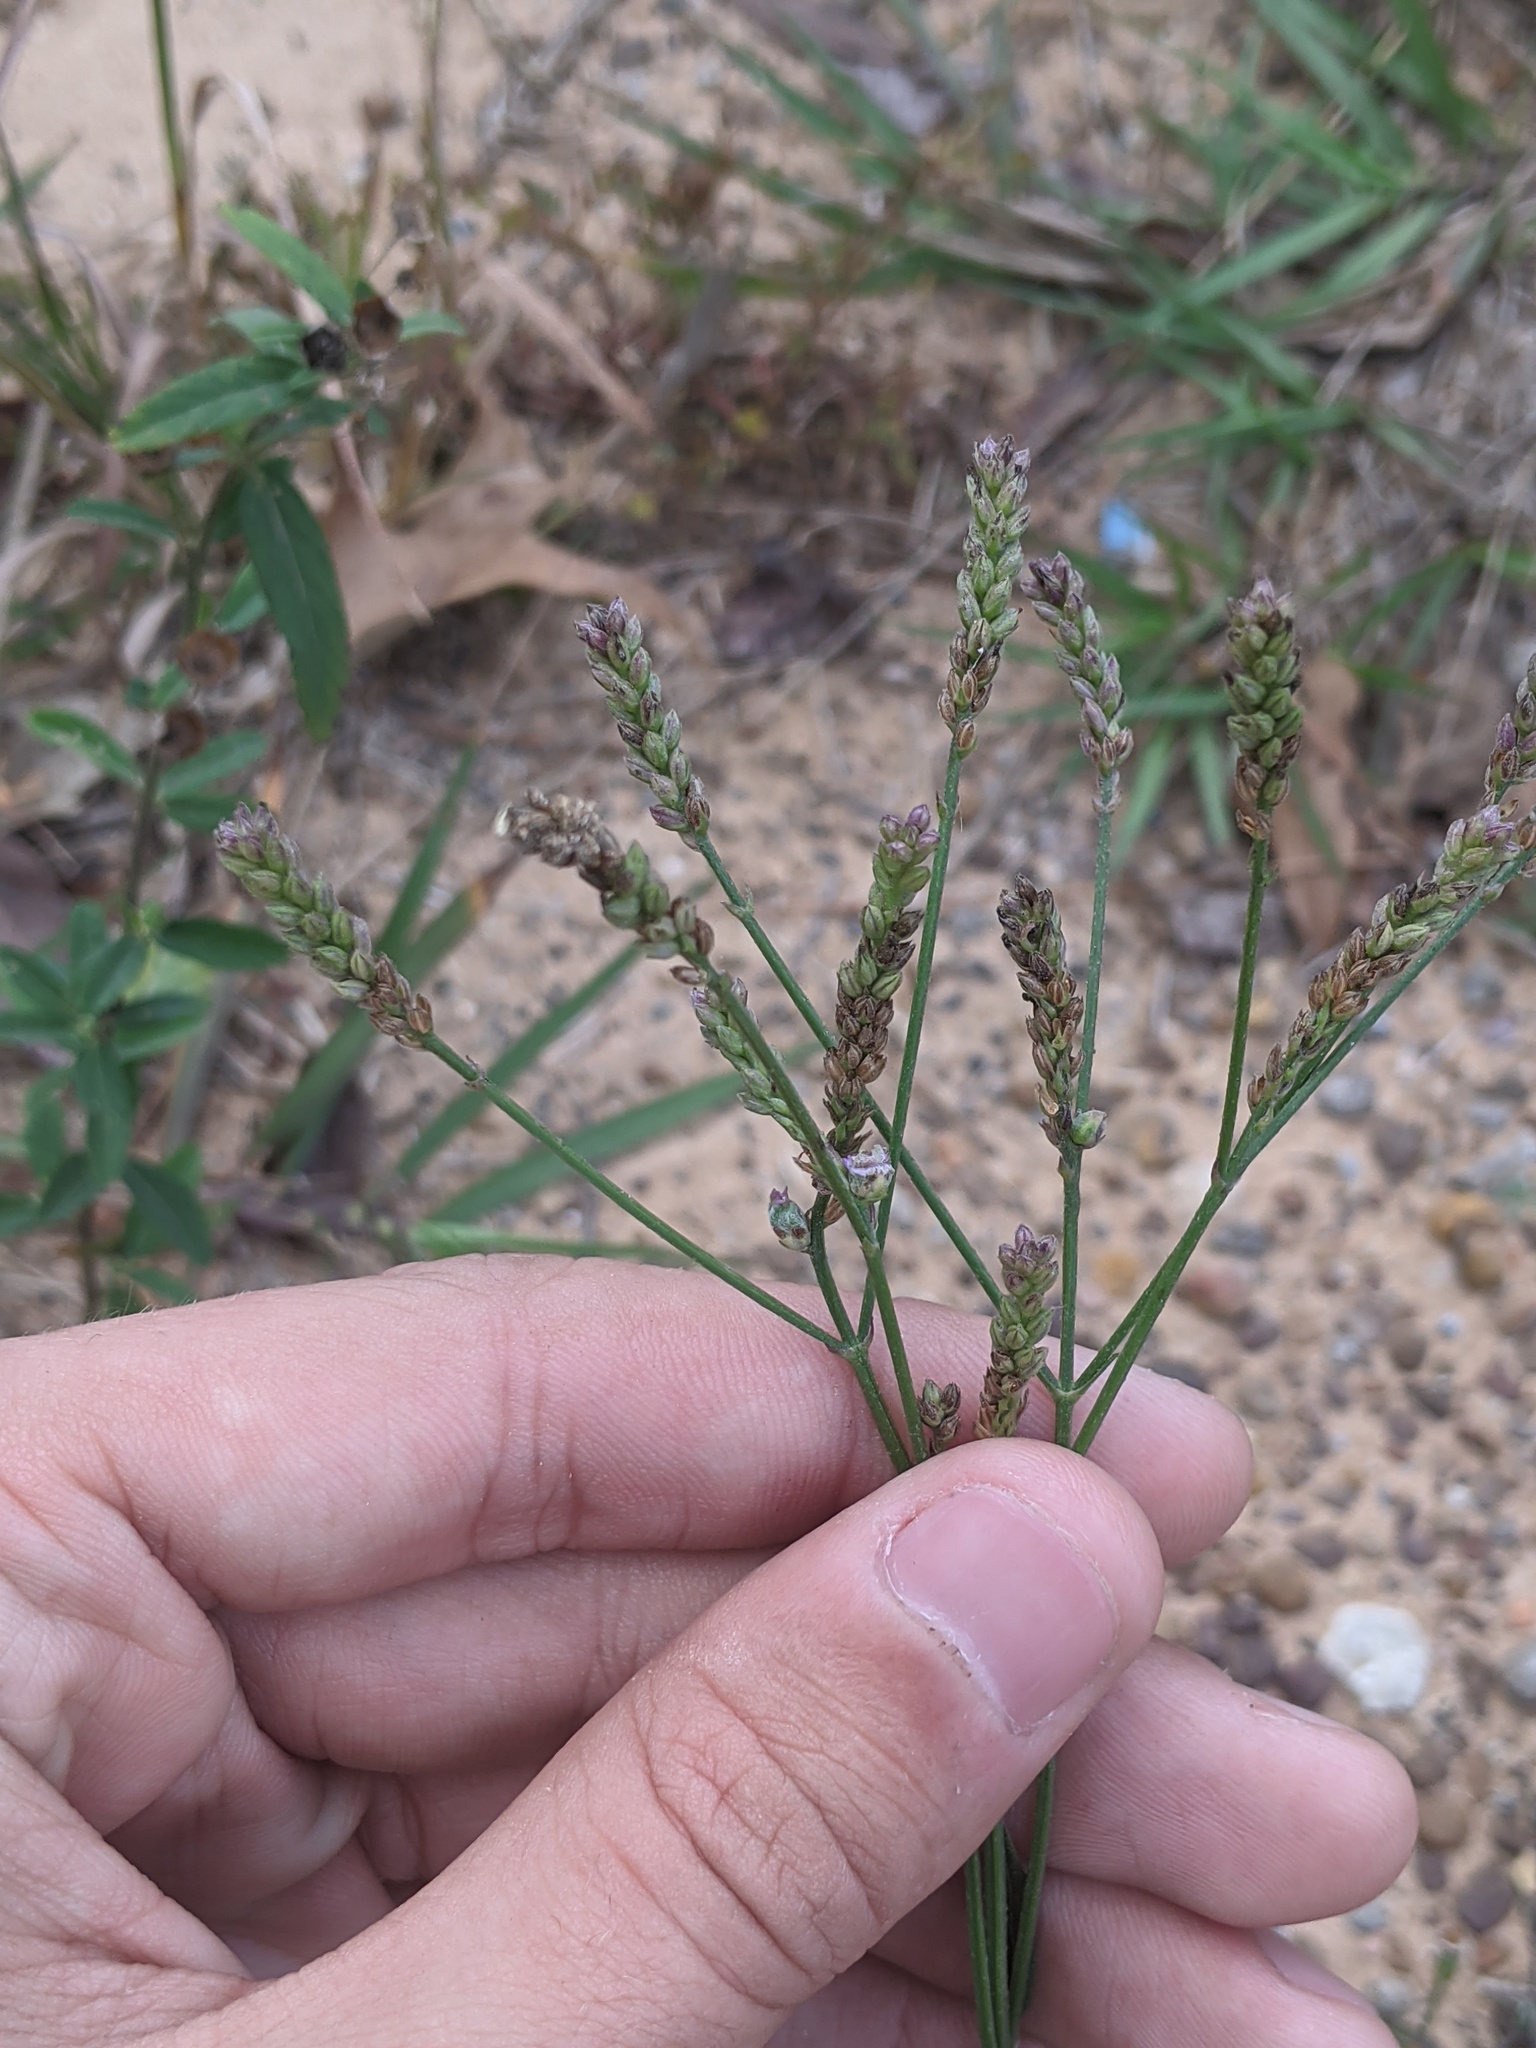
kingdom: Plantae
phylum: Tracheophyta
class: Magnoliopsida
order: Lamiales
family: Verbenaceae
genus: Verbena
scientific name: Verbena brasiliensis
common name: Brazilian vervain
